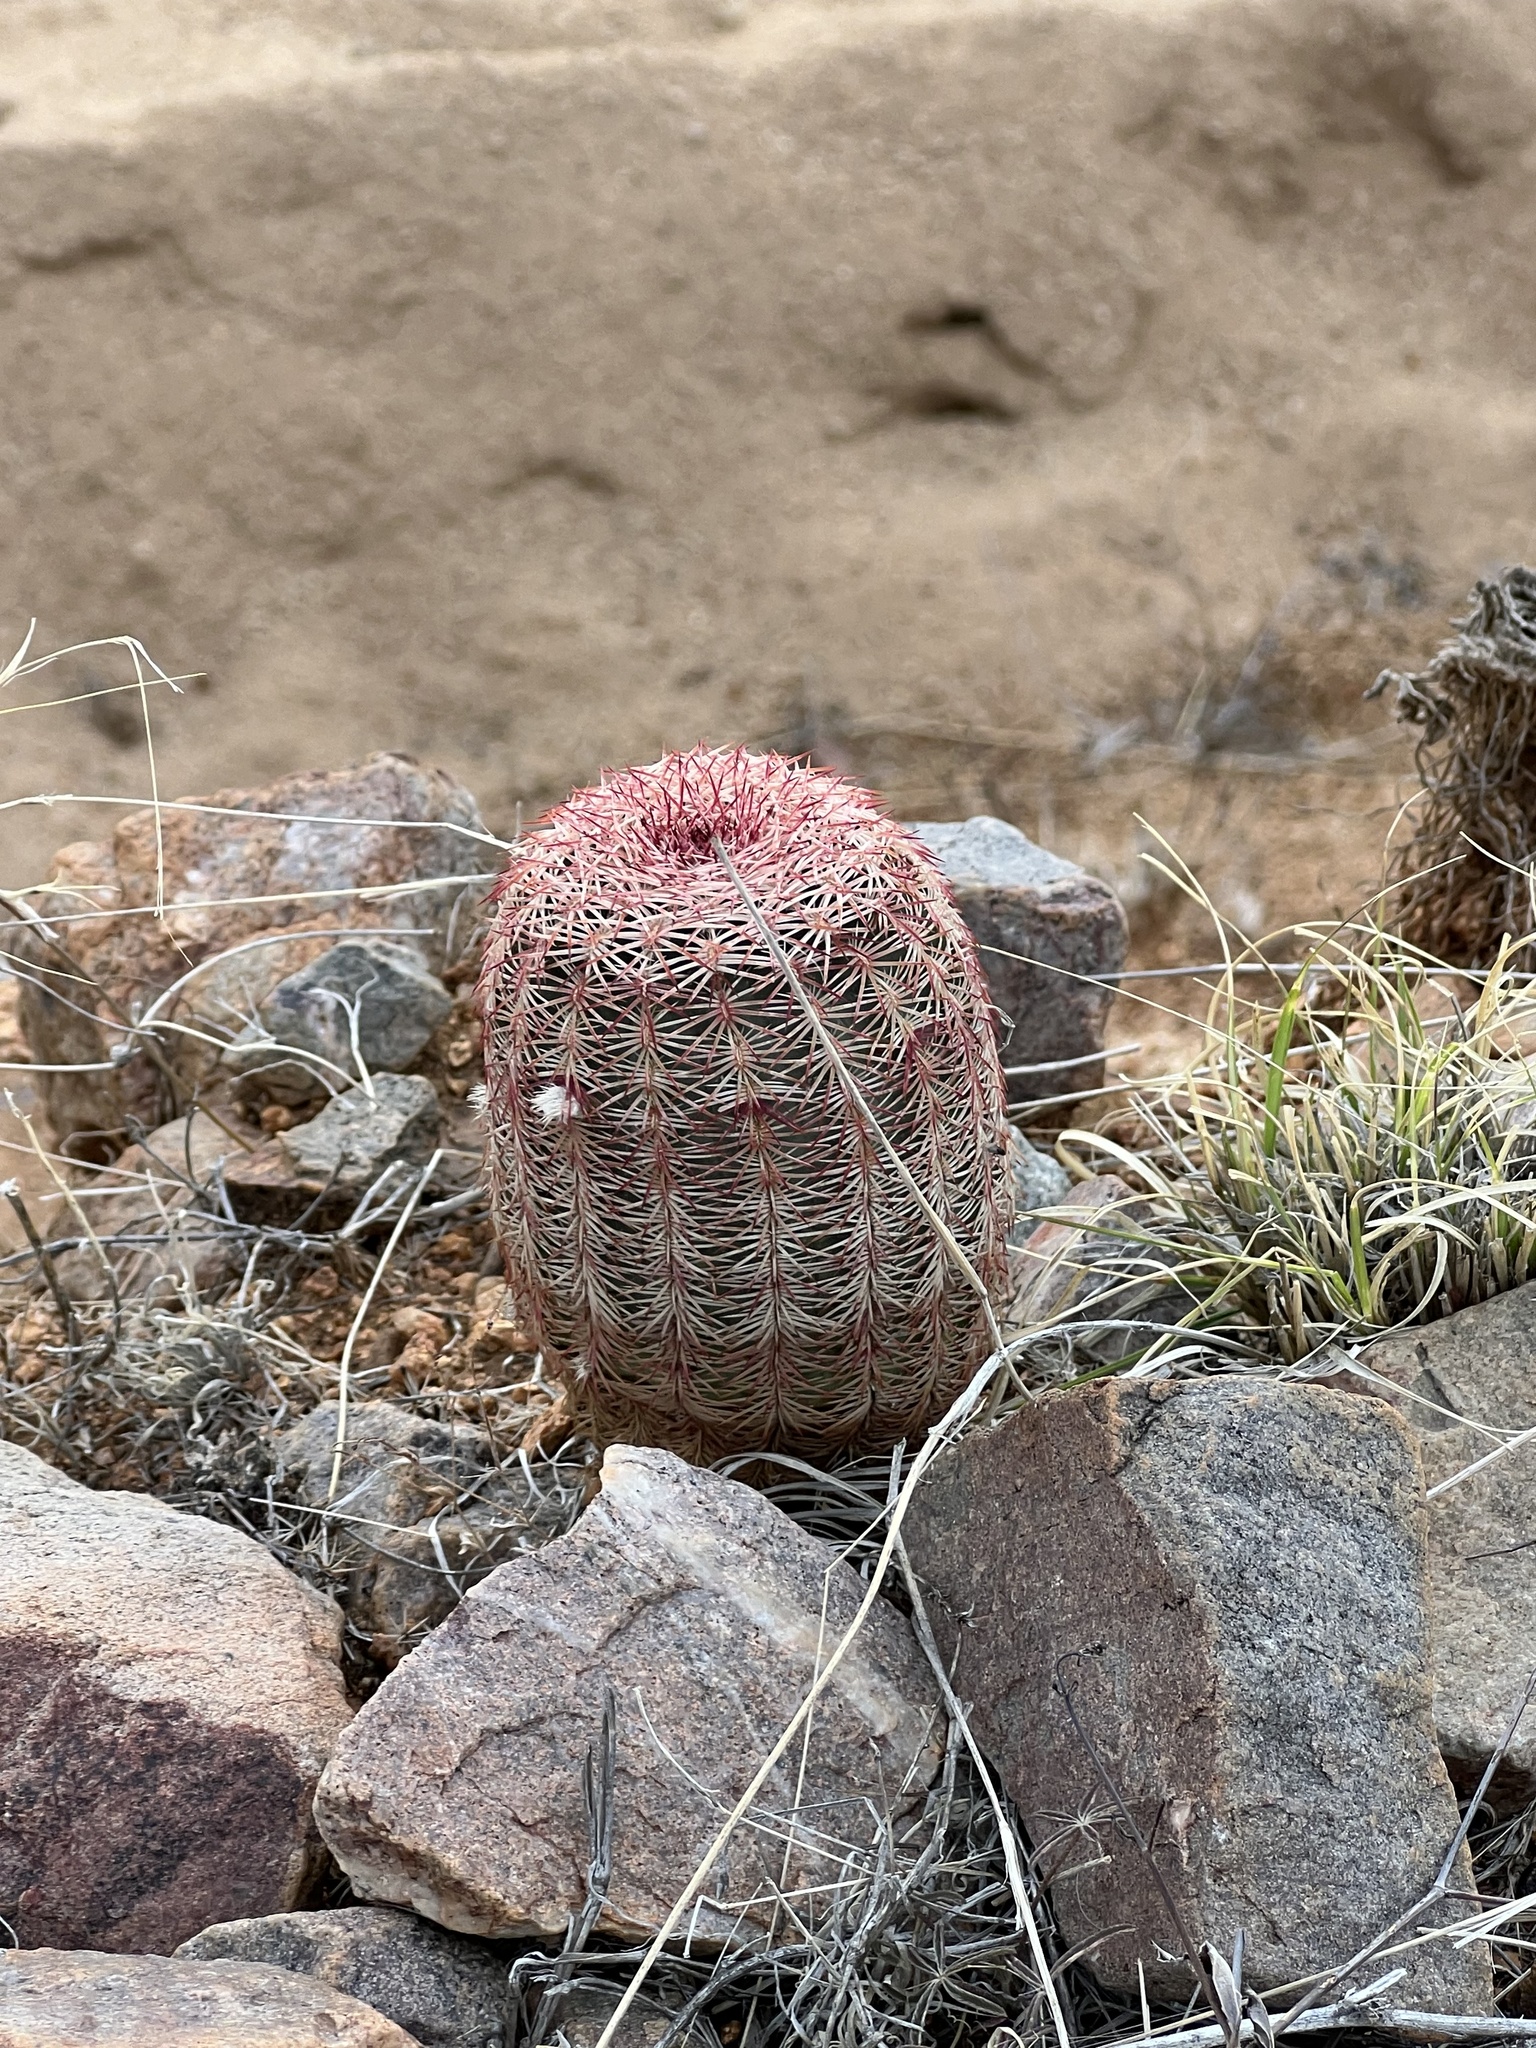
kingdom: Plantae
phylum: Tracheophyta
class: Magnoliopsida
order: Caryophyllales
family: Cactaceae
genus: Echinocereus
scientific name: Echinocereus rigidissimus
